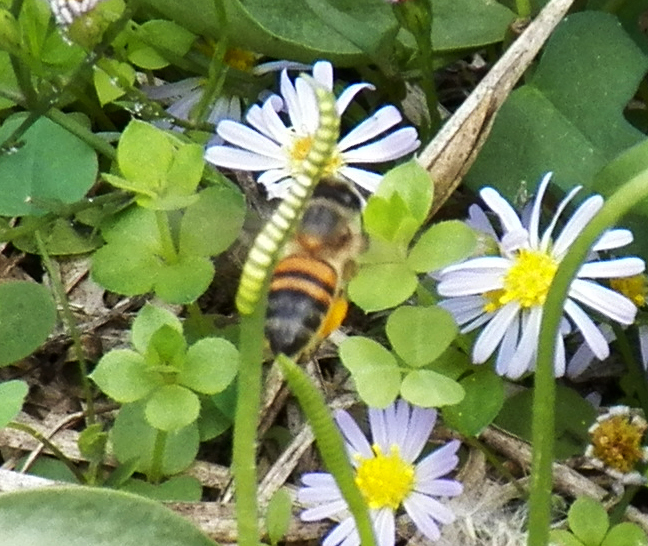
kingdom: Animalia
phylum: Arthropoda
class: Insecta
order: Hymenoptera
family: Apidae
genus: Apis
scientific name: Apis mellifera
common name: Honey bee
